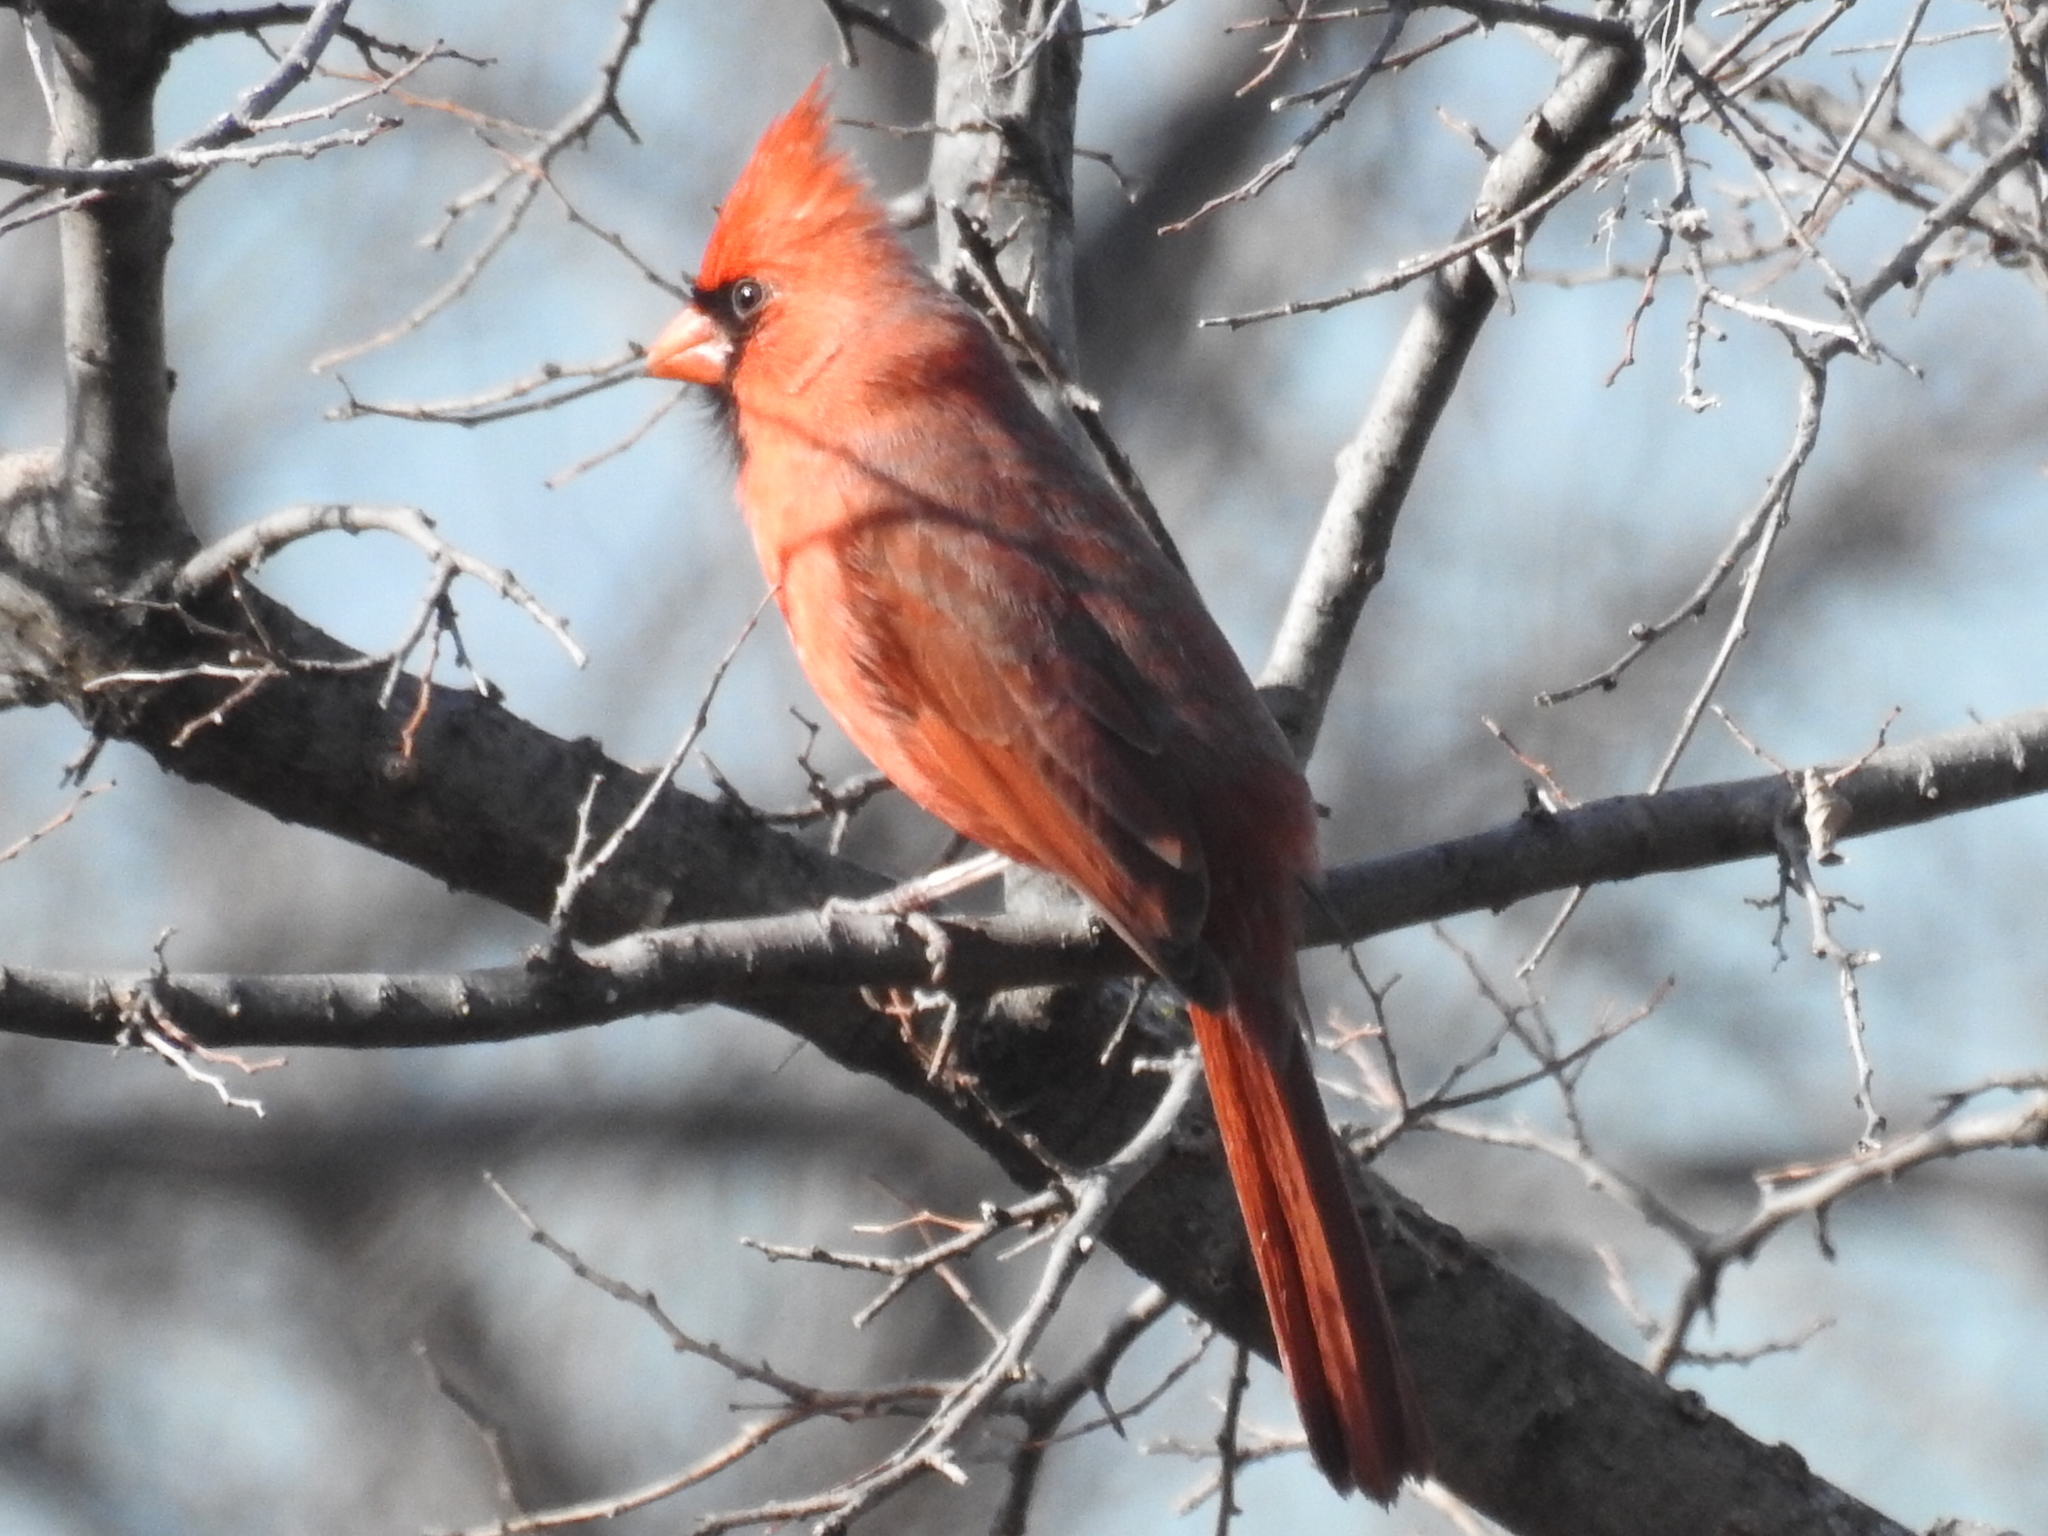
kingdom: Animalia
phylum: Chordata
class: Aves
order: Passeriformes
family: Cardinalidae
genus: Cardinalis
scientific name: Cardinalis cardinalis
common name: Northern cardinal
